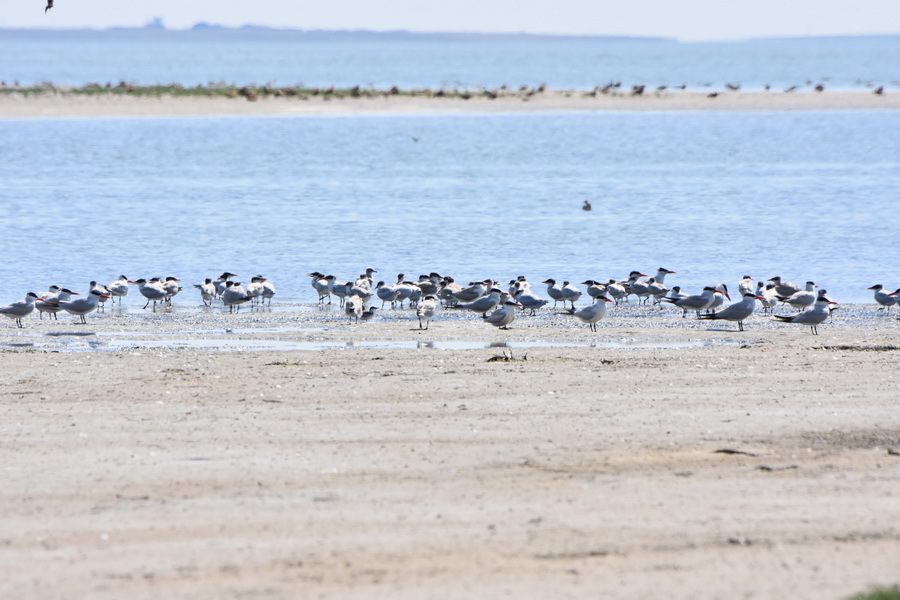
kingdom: Animalia
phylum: Chordata
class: Aves
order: Charadriiformes
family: Laridae
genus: Hydroprogne
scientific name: Hydroprogne caspia
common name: Caspian tern
